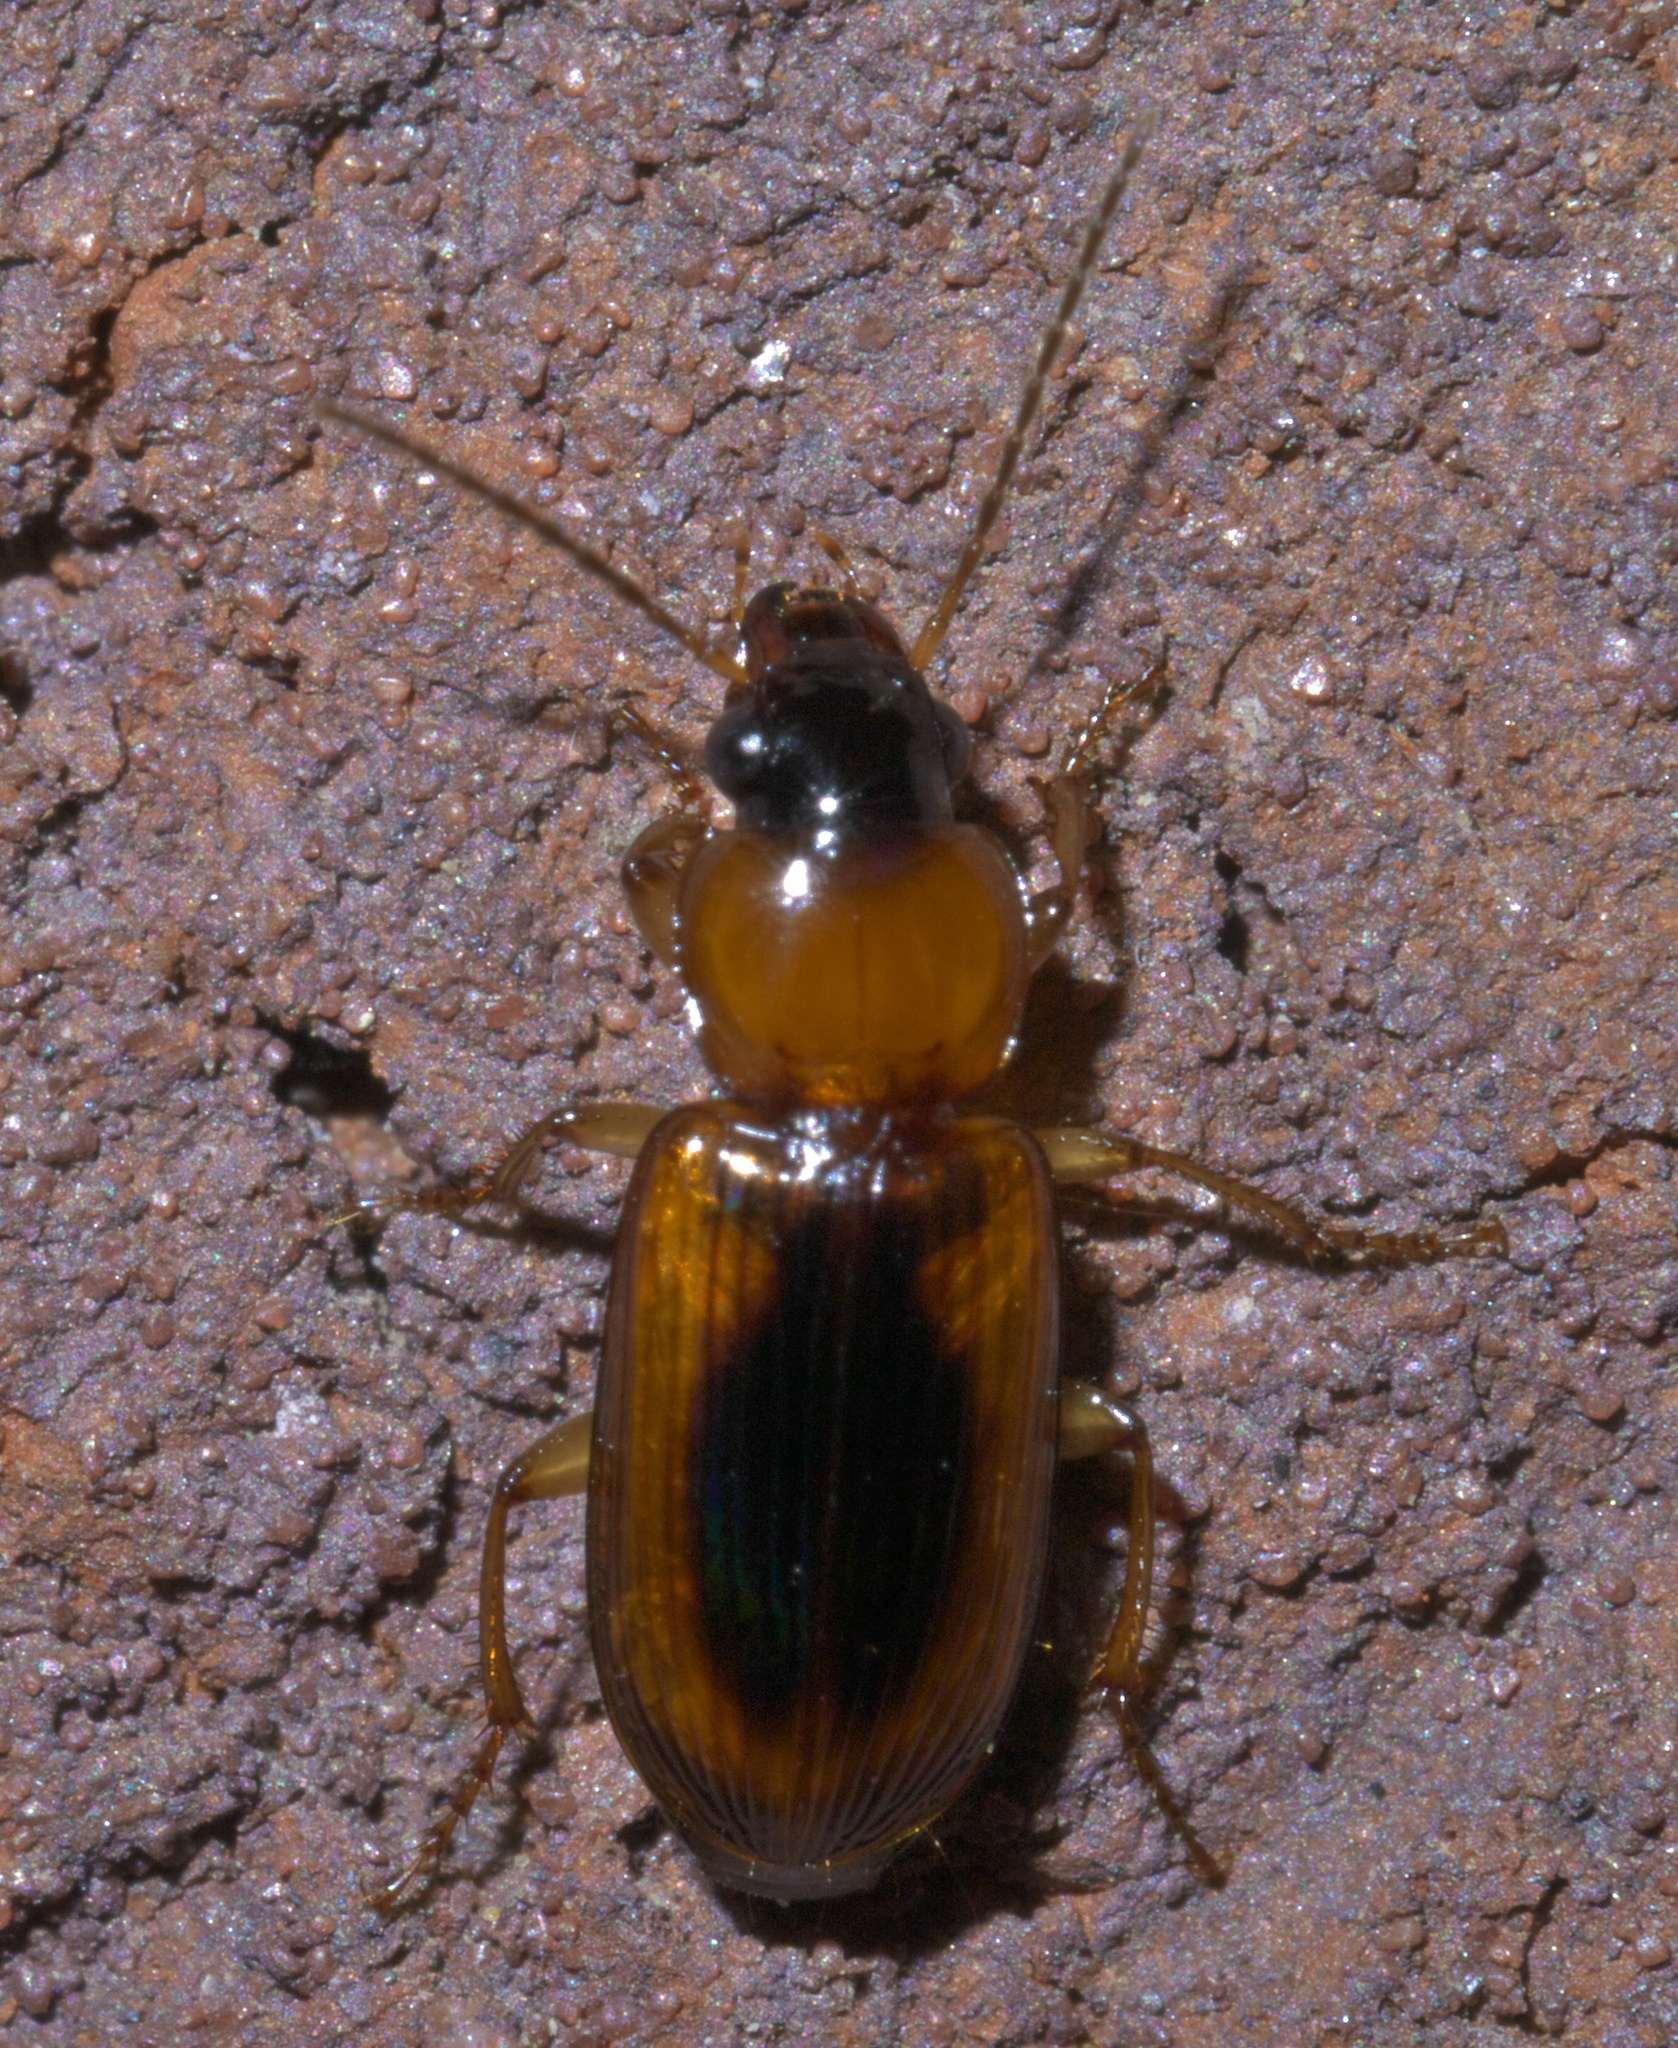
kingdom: Animalia
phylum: Arthropoda
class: Insecta
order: Coleoptera
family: Carabidae
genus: Stenolophus
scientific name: Stenolophus dissimilis
